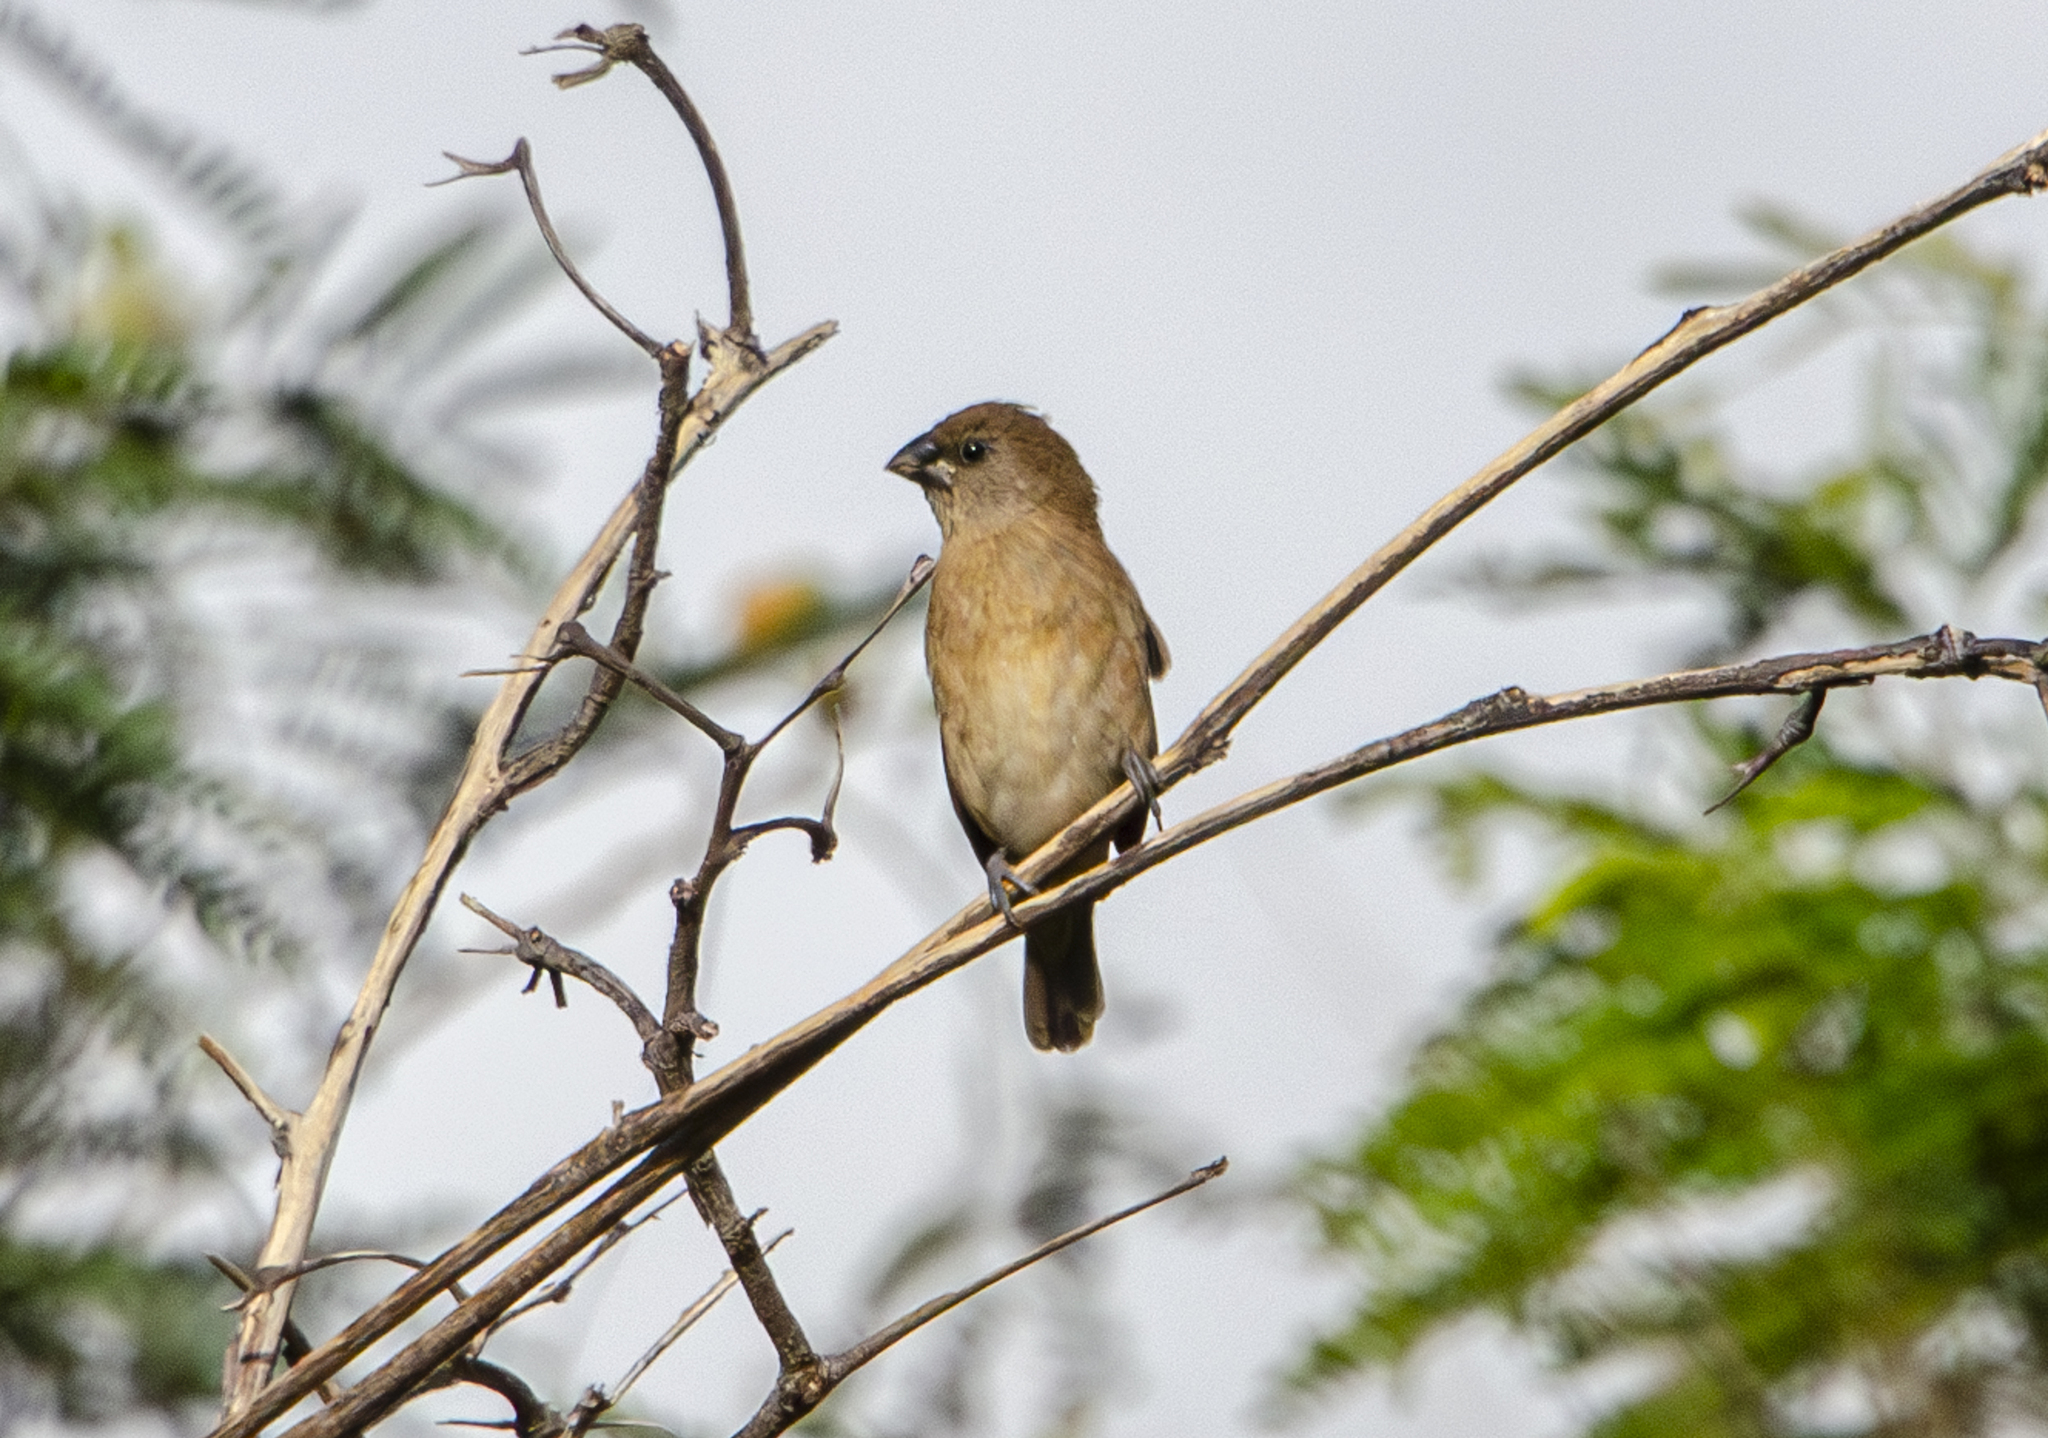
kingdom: Animalia
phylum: Chordata
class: Aves
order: Passeriformes
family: Estrildidae
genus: Lonchura
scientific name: Lonchura punctulata
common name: Scaly-breasted munia
